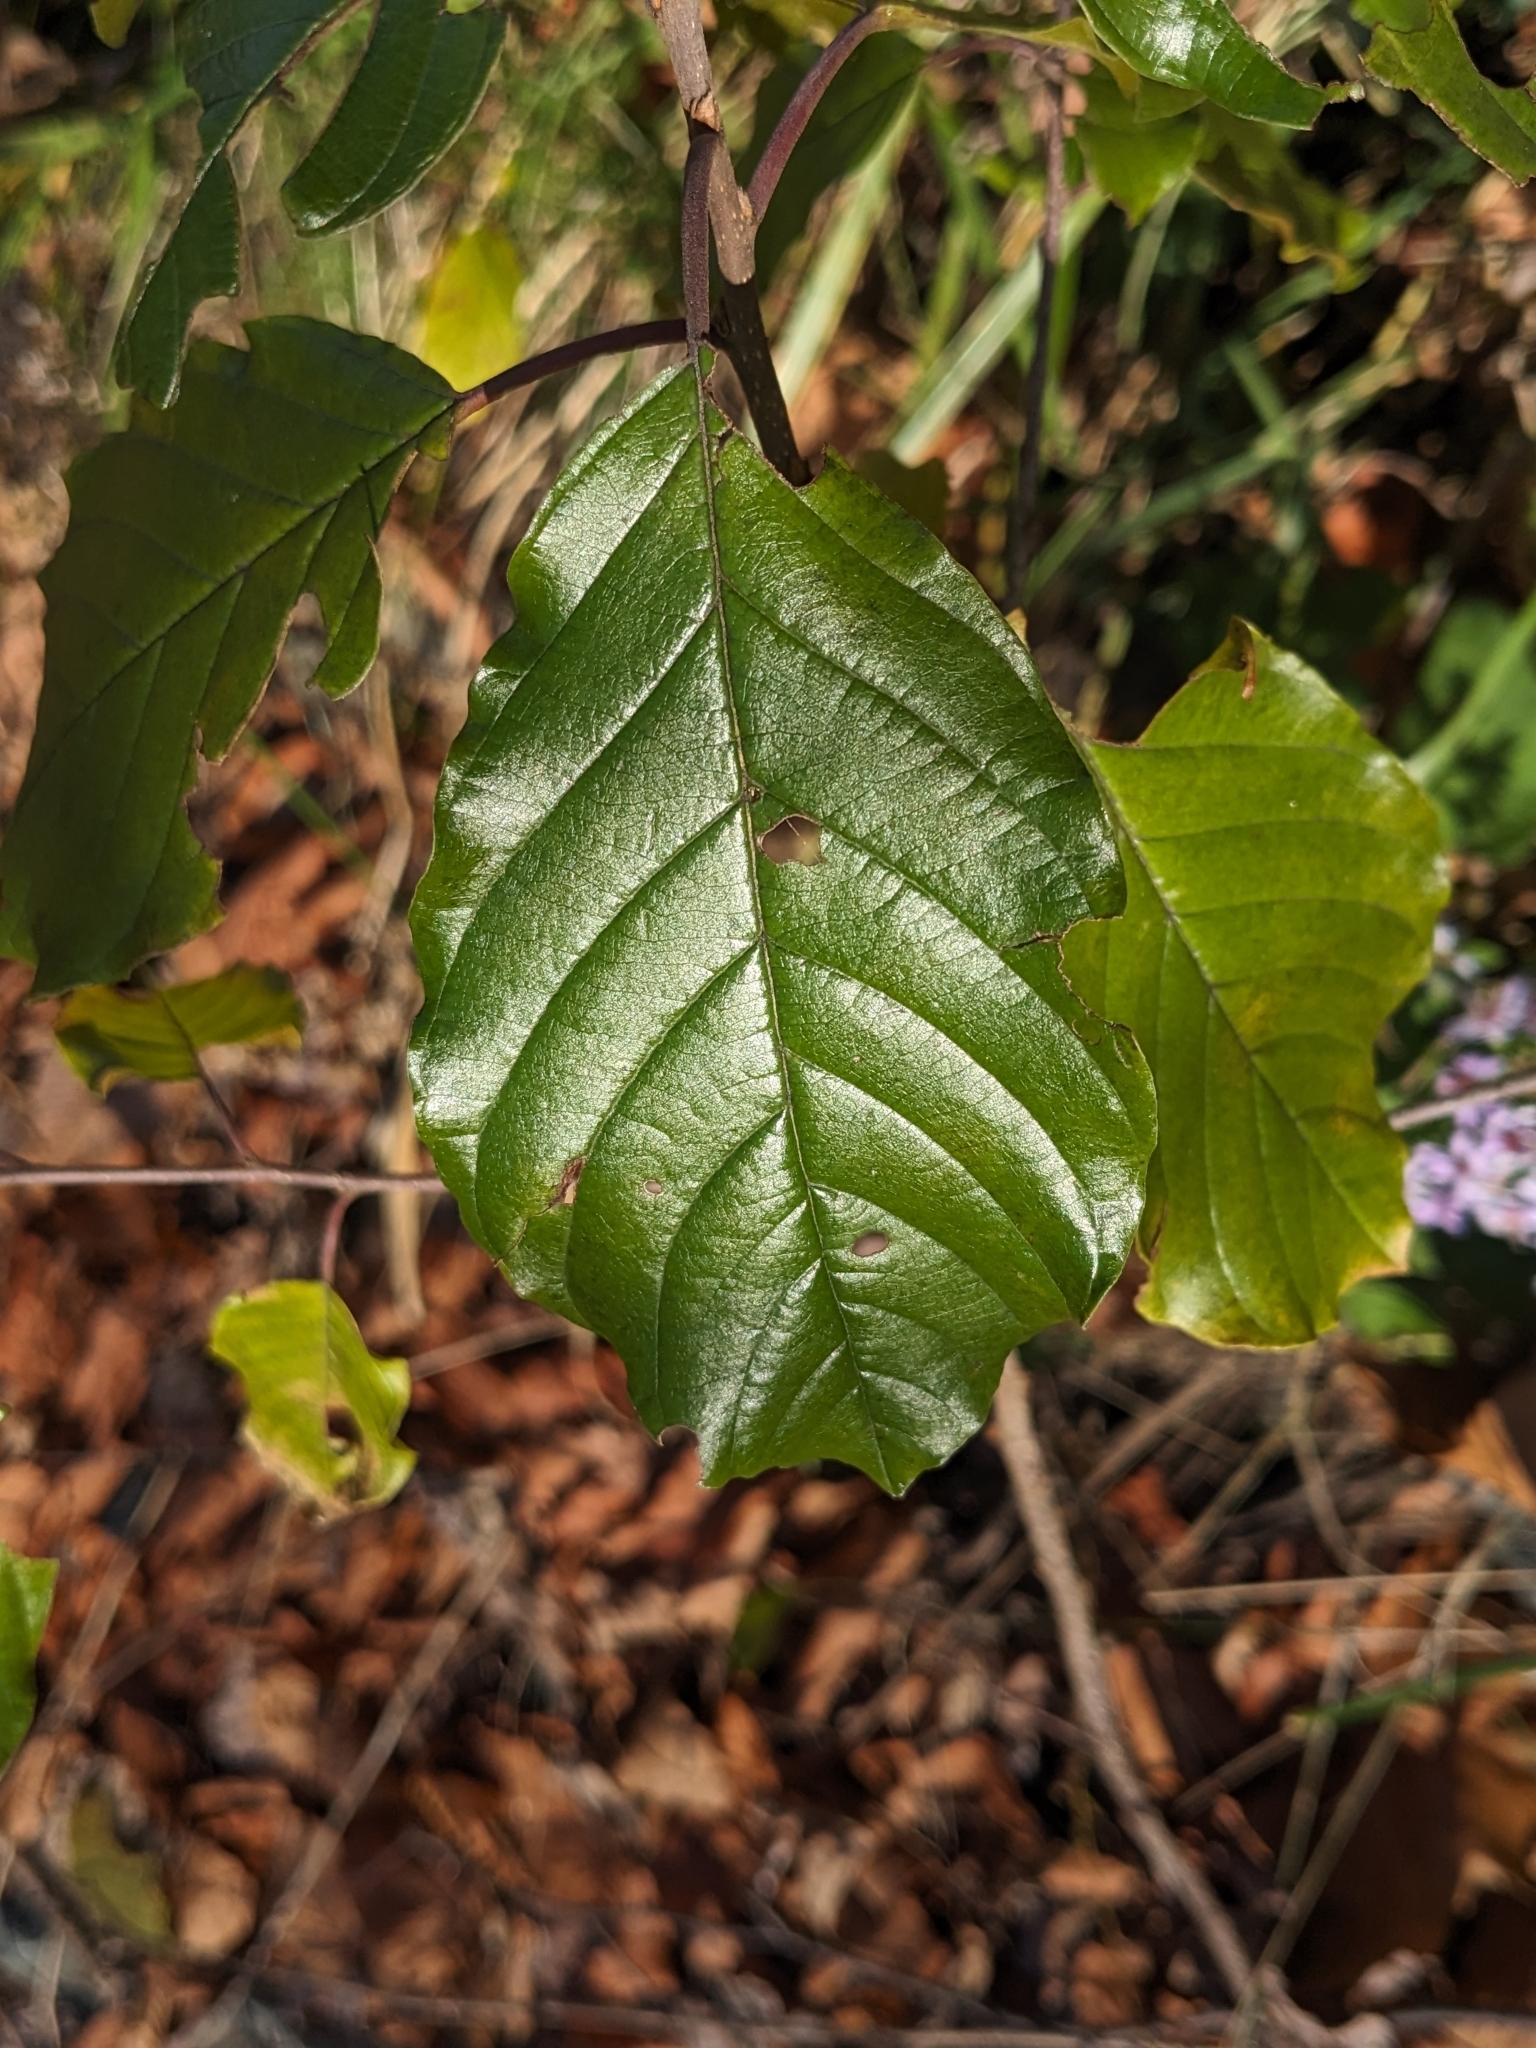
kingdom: Plantae
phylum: Tracheophyta
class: Magnoliopsida
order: Rosales
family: Rhamnaceae
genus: Frangula
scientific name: Frangula alnus
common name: Alder buckthorn
